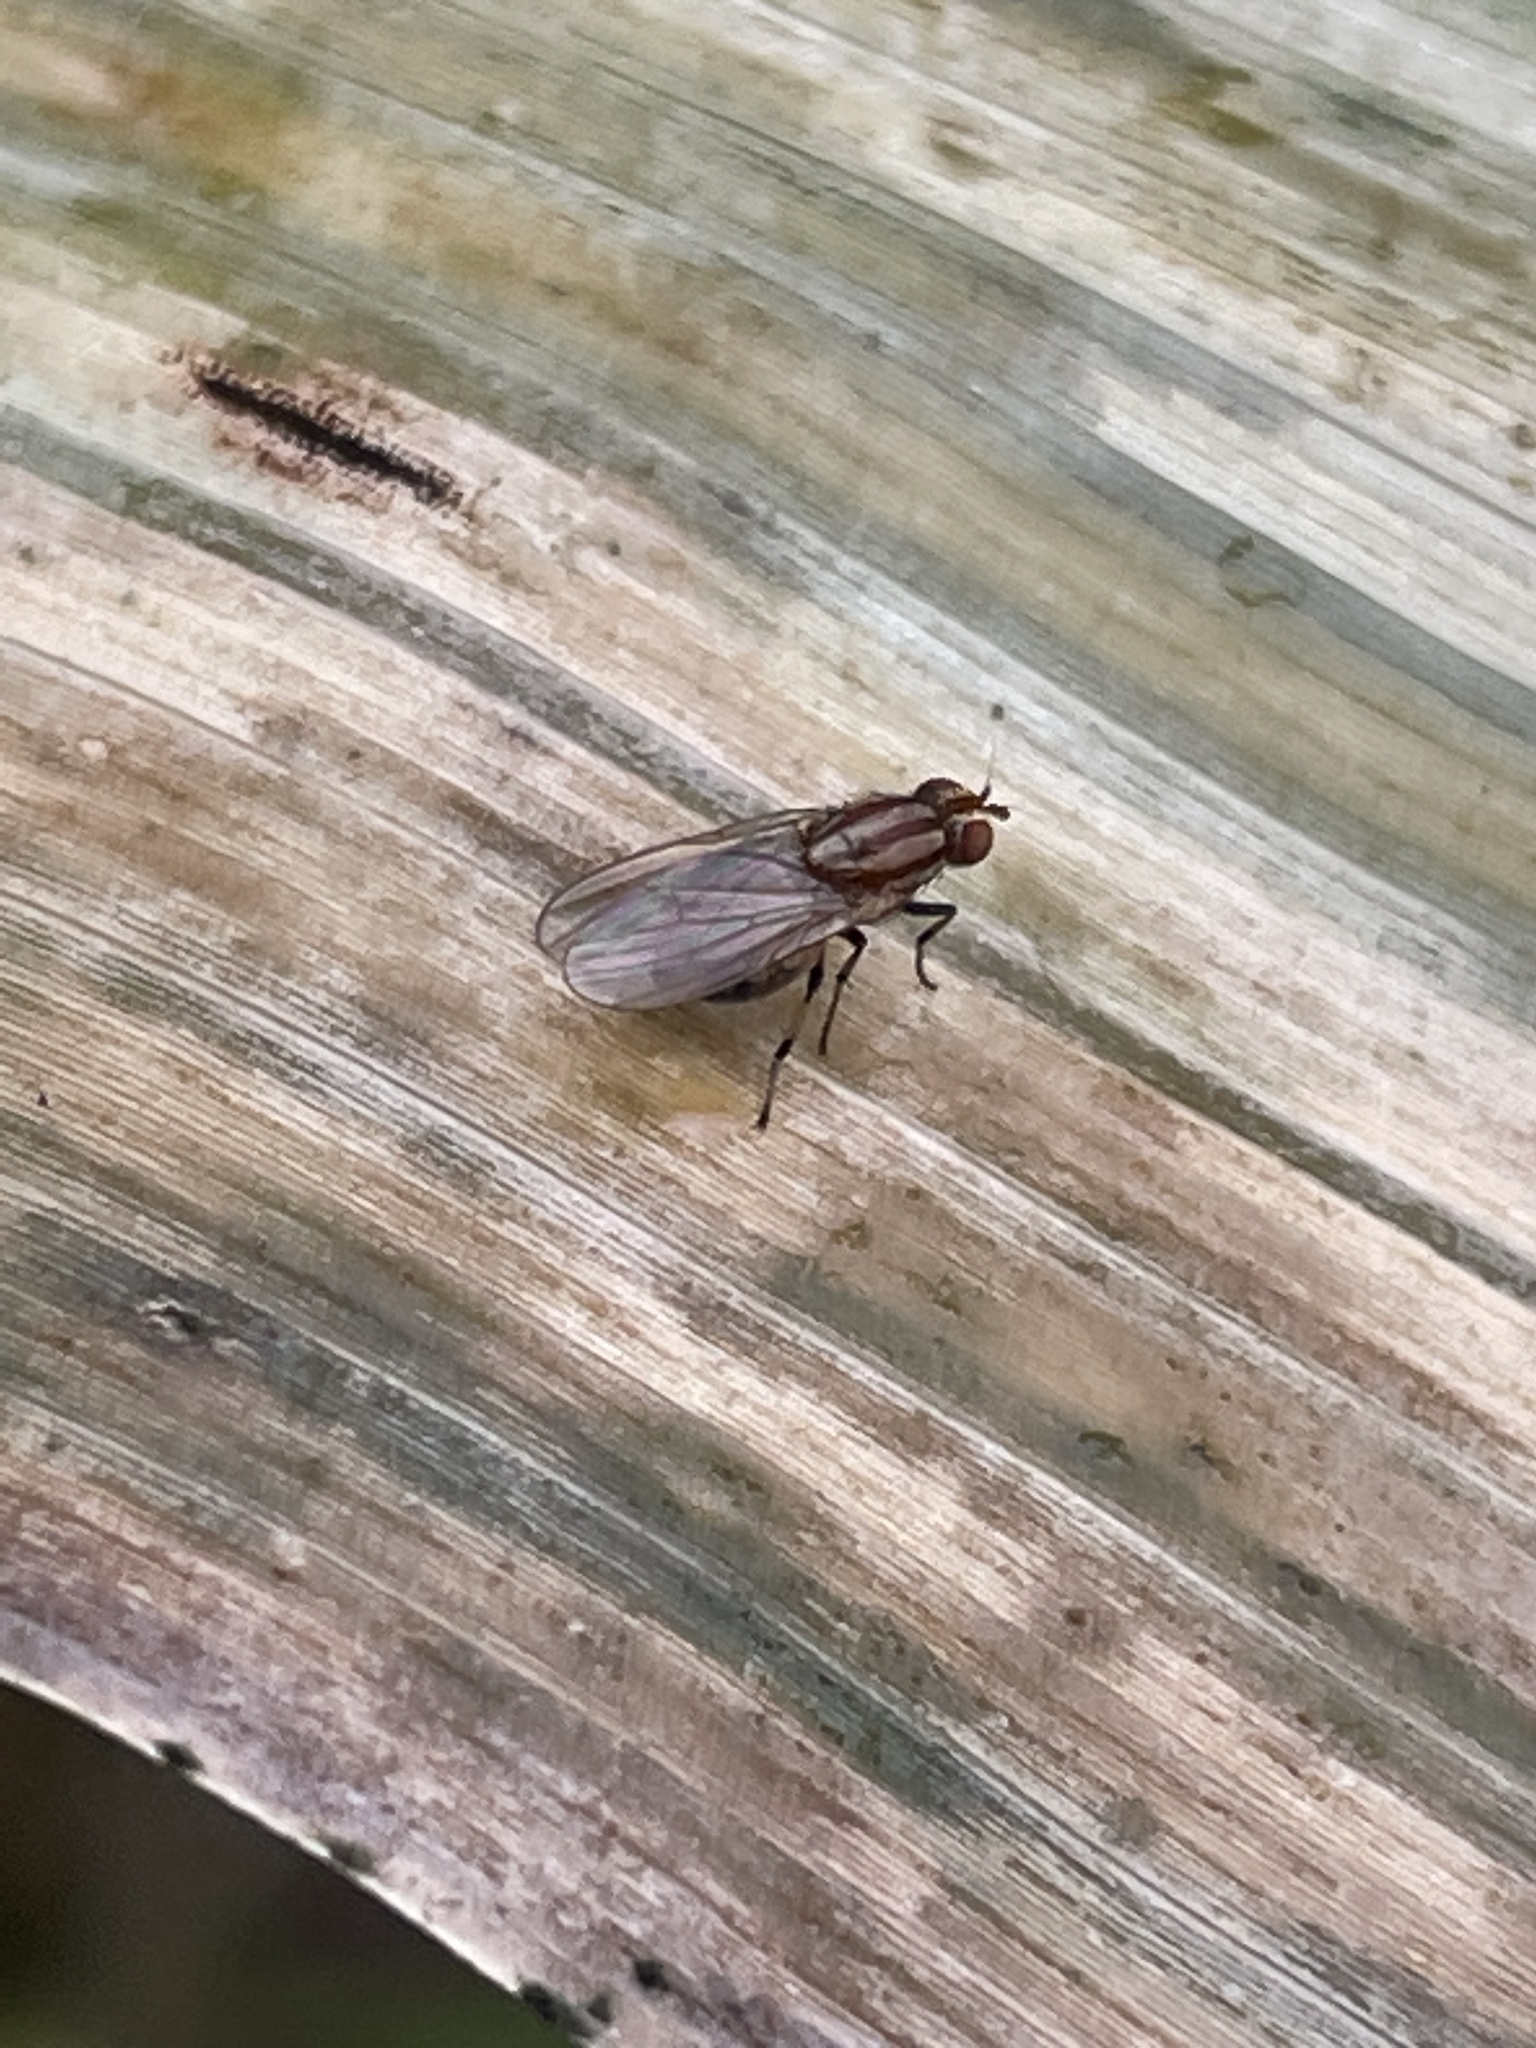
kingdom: Animalia
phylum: Arthropoda
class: Insecta
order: Diptera
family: Lauxaniidae
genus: Sapromyza
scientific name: Sapromyza brunneovittata
